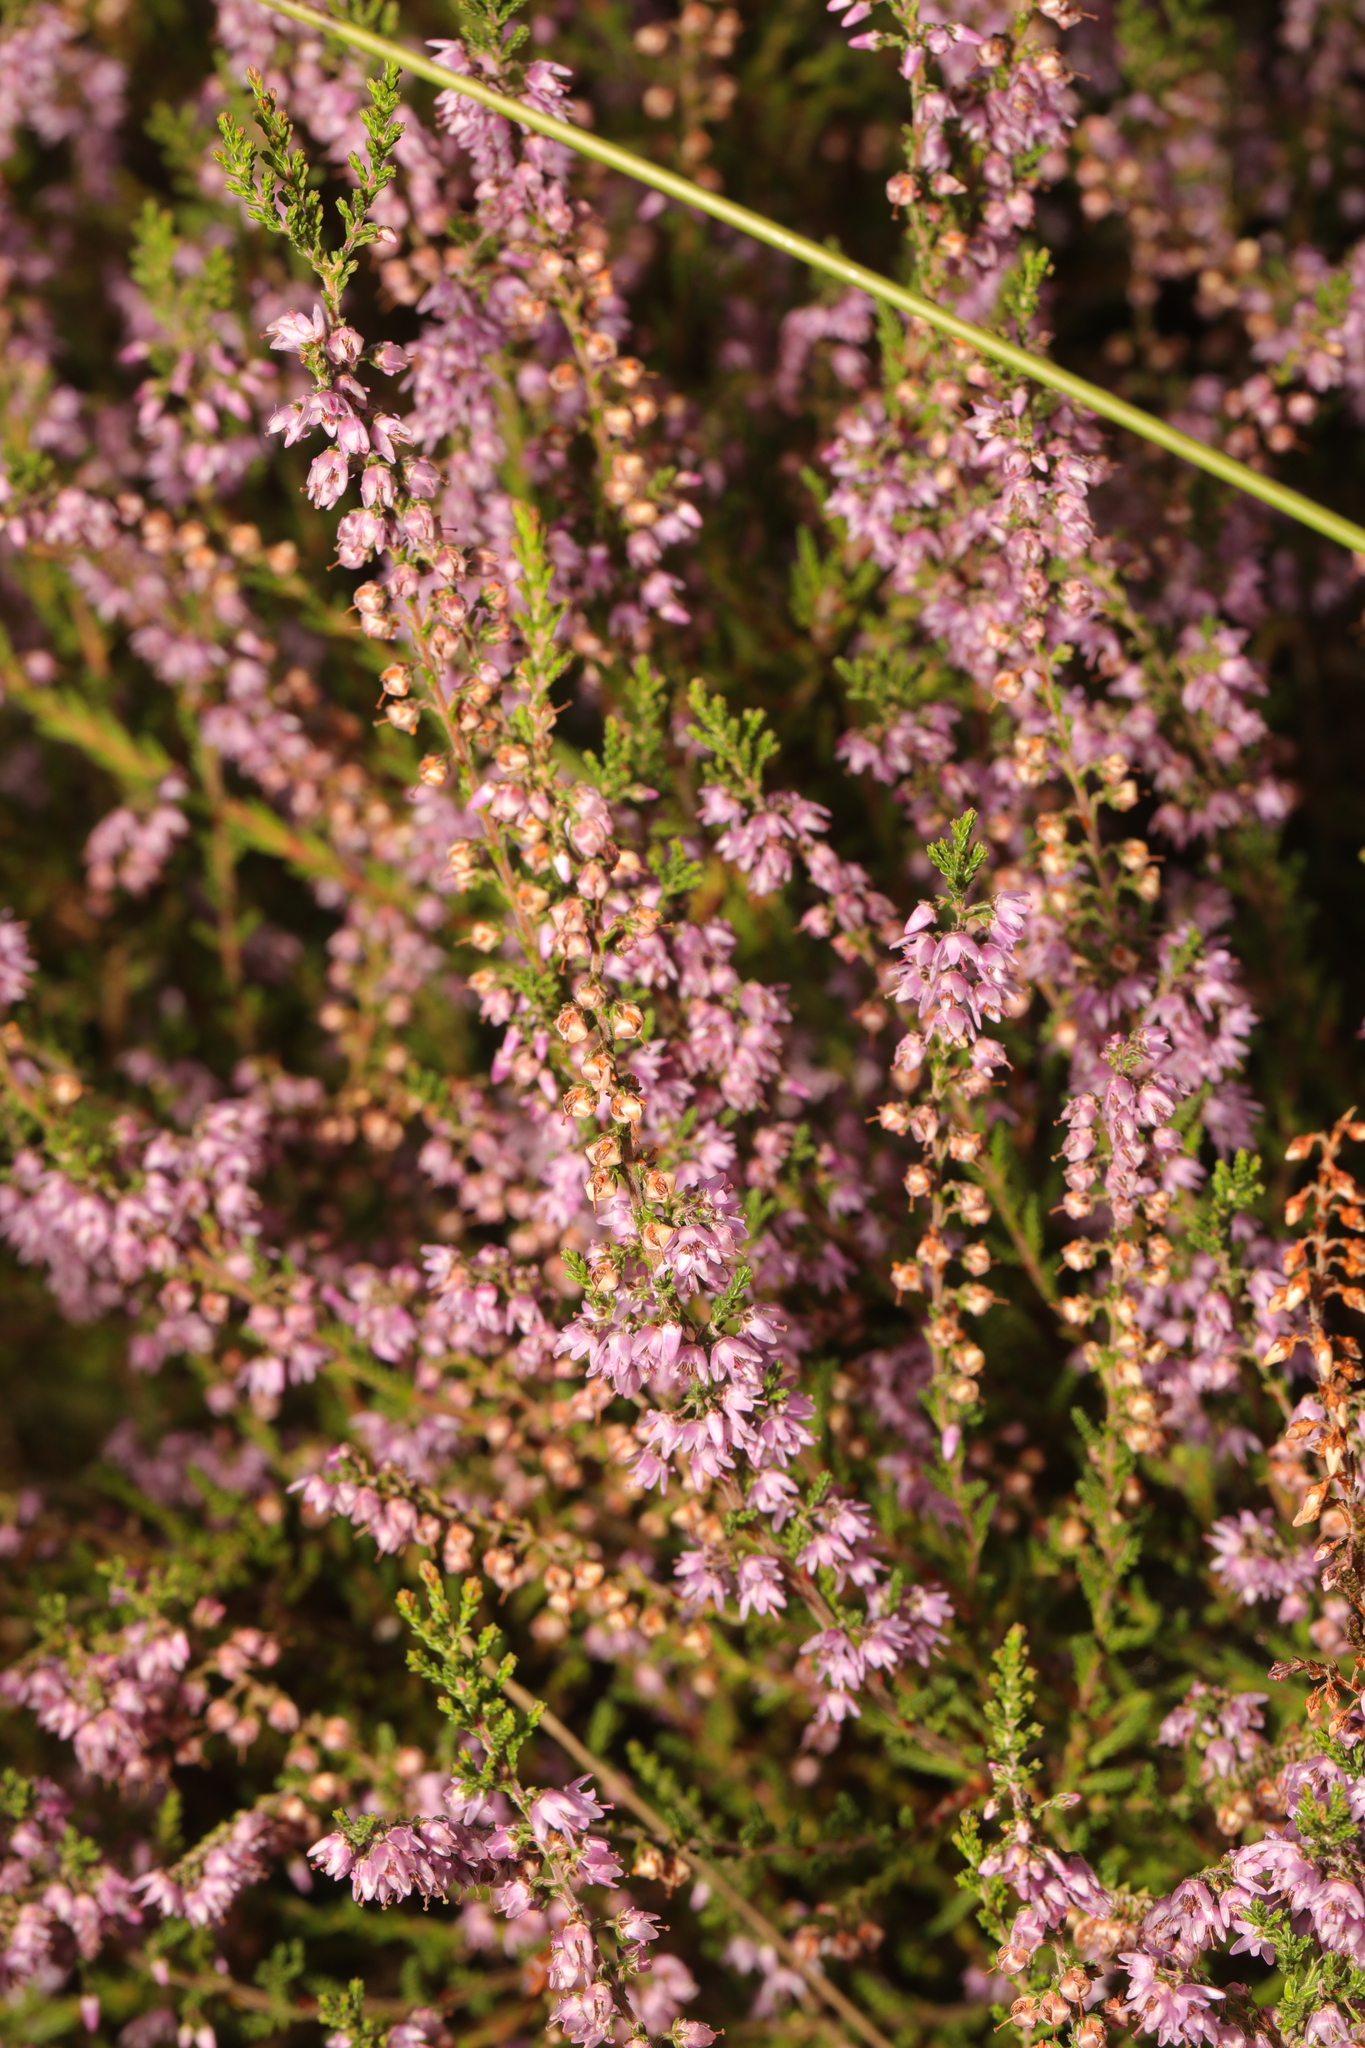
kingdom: Plantae
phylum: Tracheophyta
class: Magnoliopsida
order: Ericales
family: Ericaceae
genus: Calluna
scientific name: Calluna vulgaris
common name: Heather
